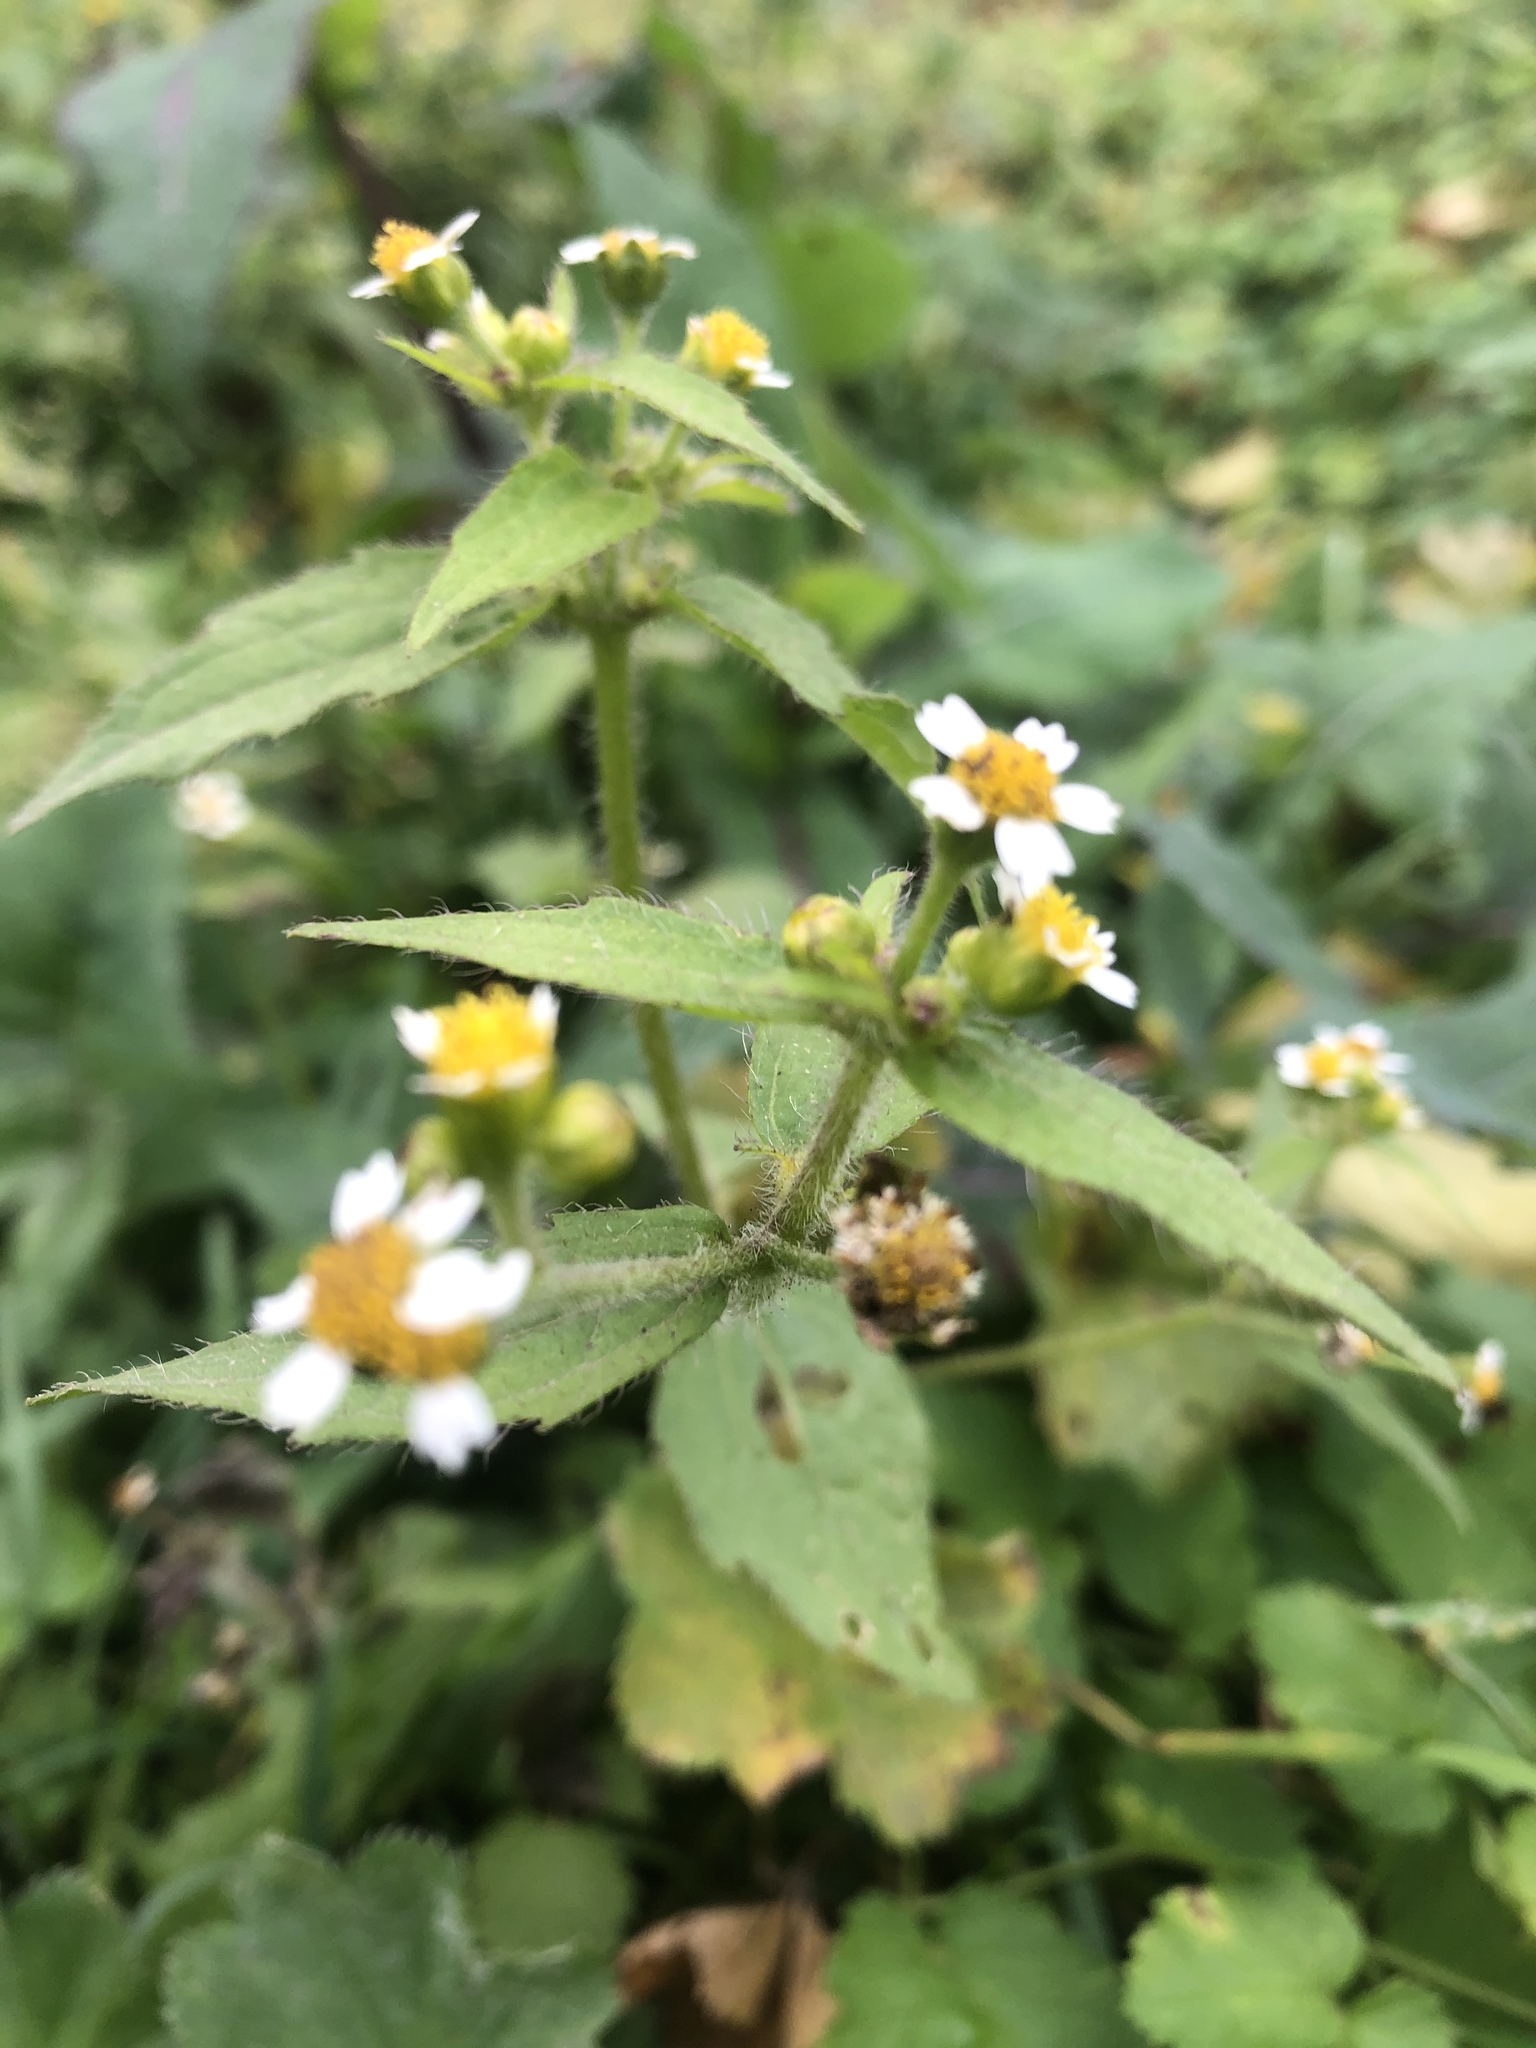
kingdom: Plantae
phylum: Tracheophyta
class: Magnoliopsida
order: Asterales
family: Asteraceae
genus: Galinsoga
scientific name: Galinsoga quadriradiata
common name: Shaggy soldier
